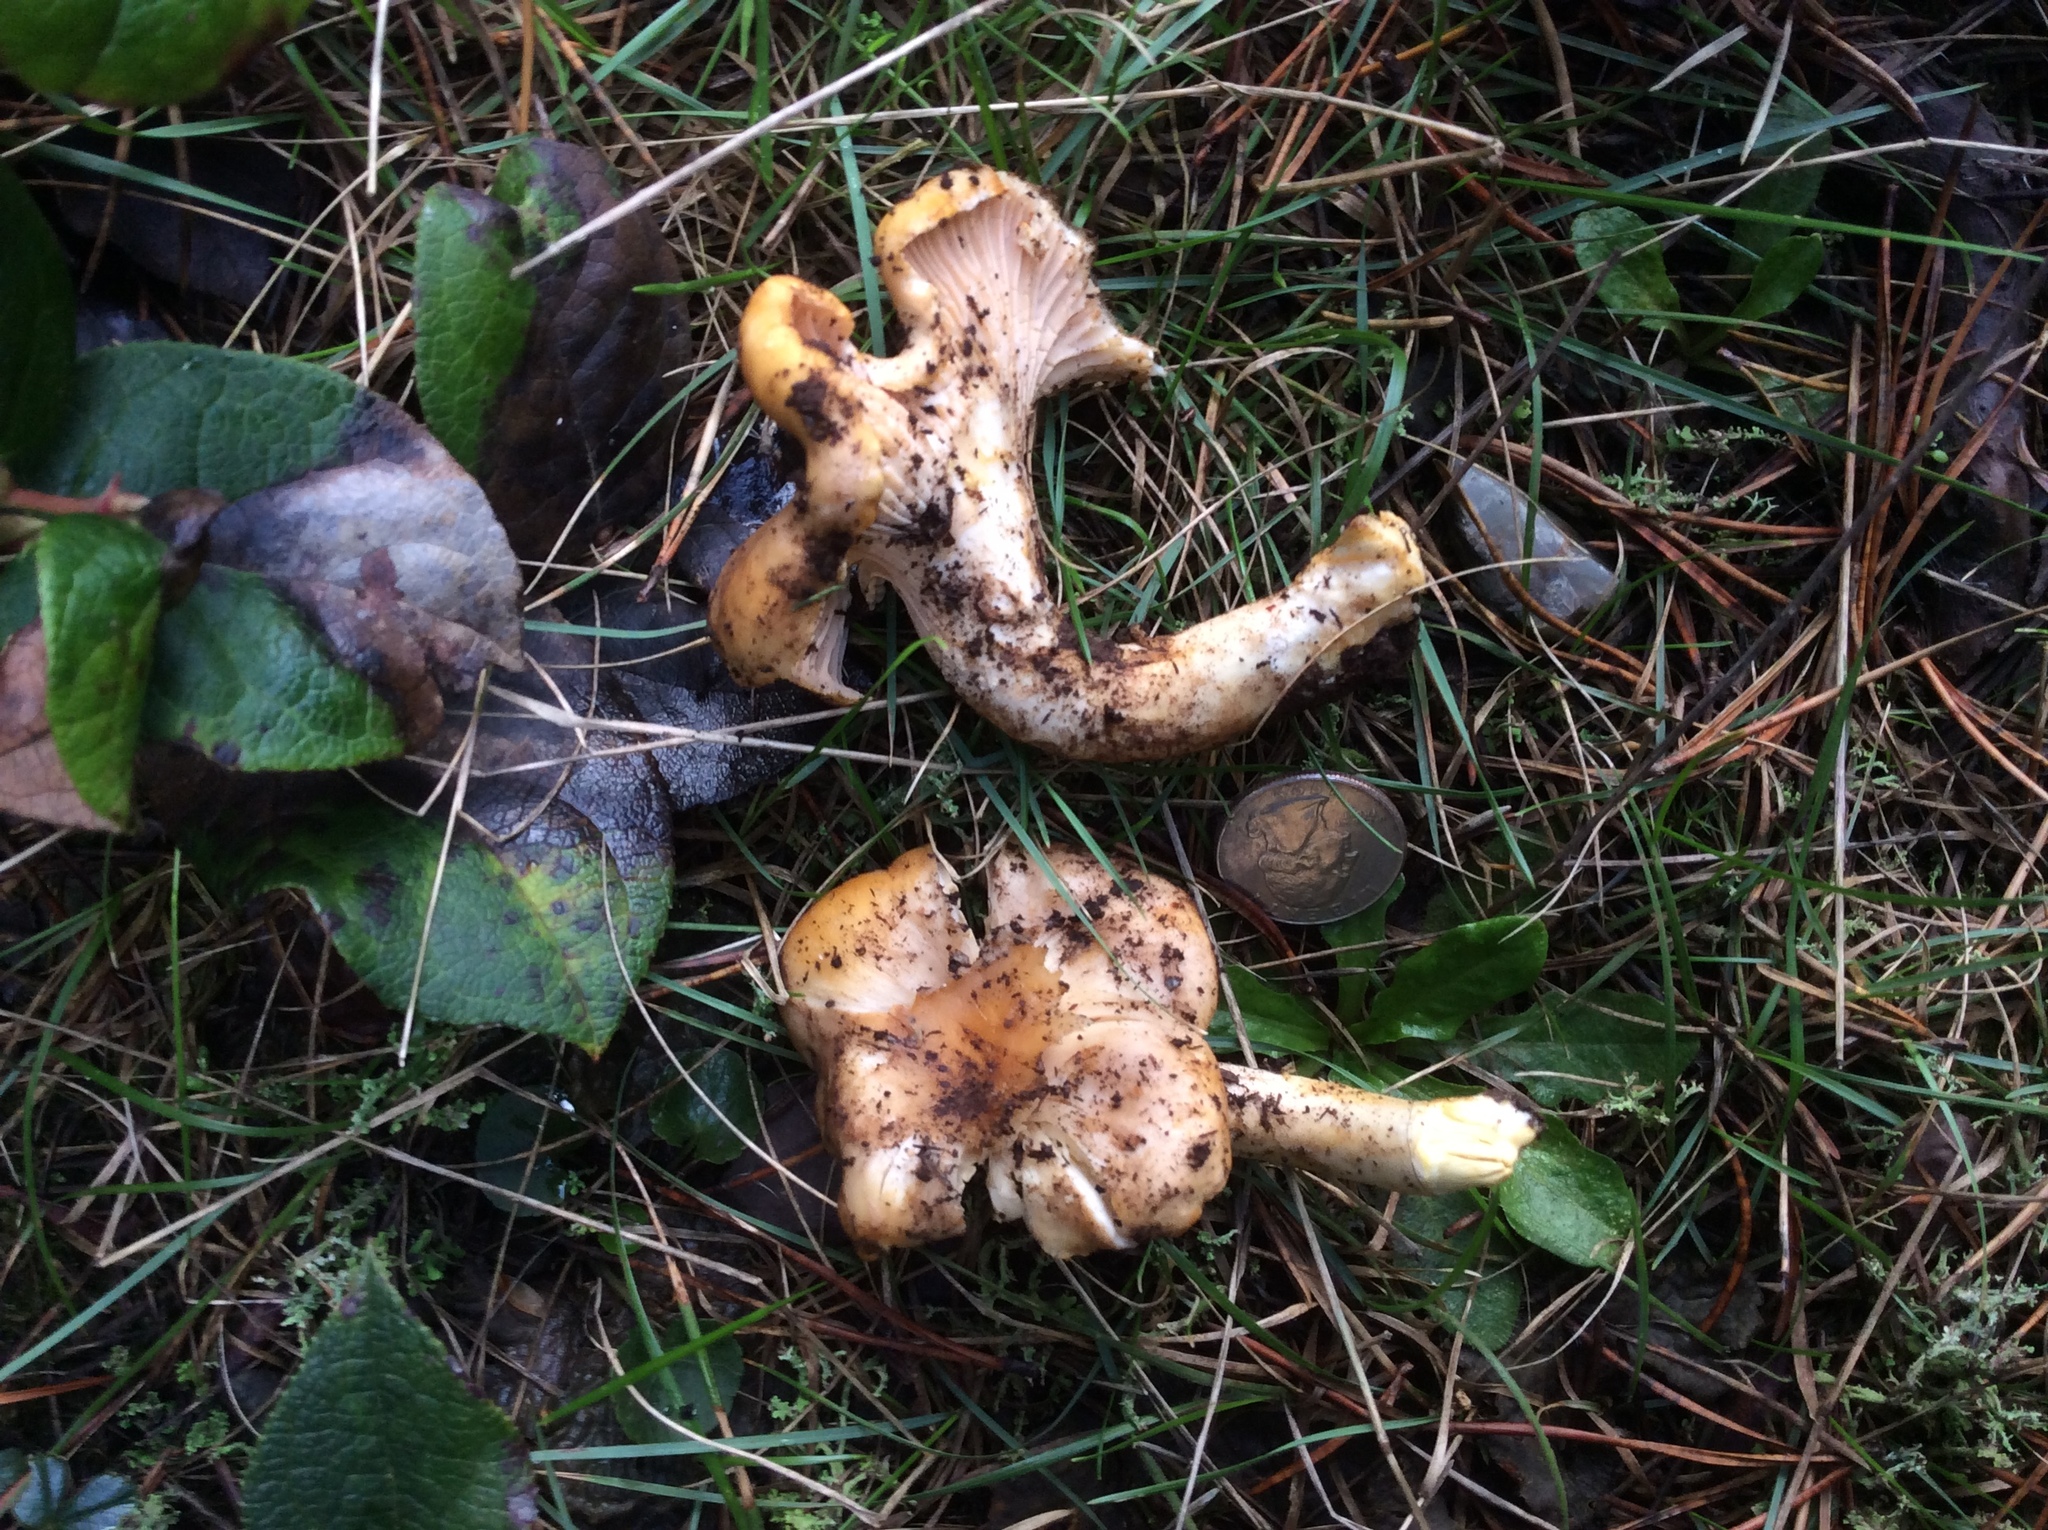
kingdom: Fungi
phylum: Basidiomycota
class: Agaricomycetes
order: Cantharellales
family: Hydnaceae
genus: Cantharellus
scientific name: Cantharellus formosus
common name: Pacific golden chanterelle
